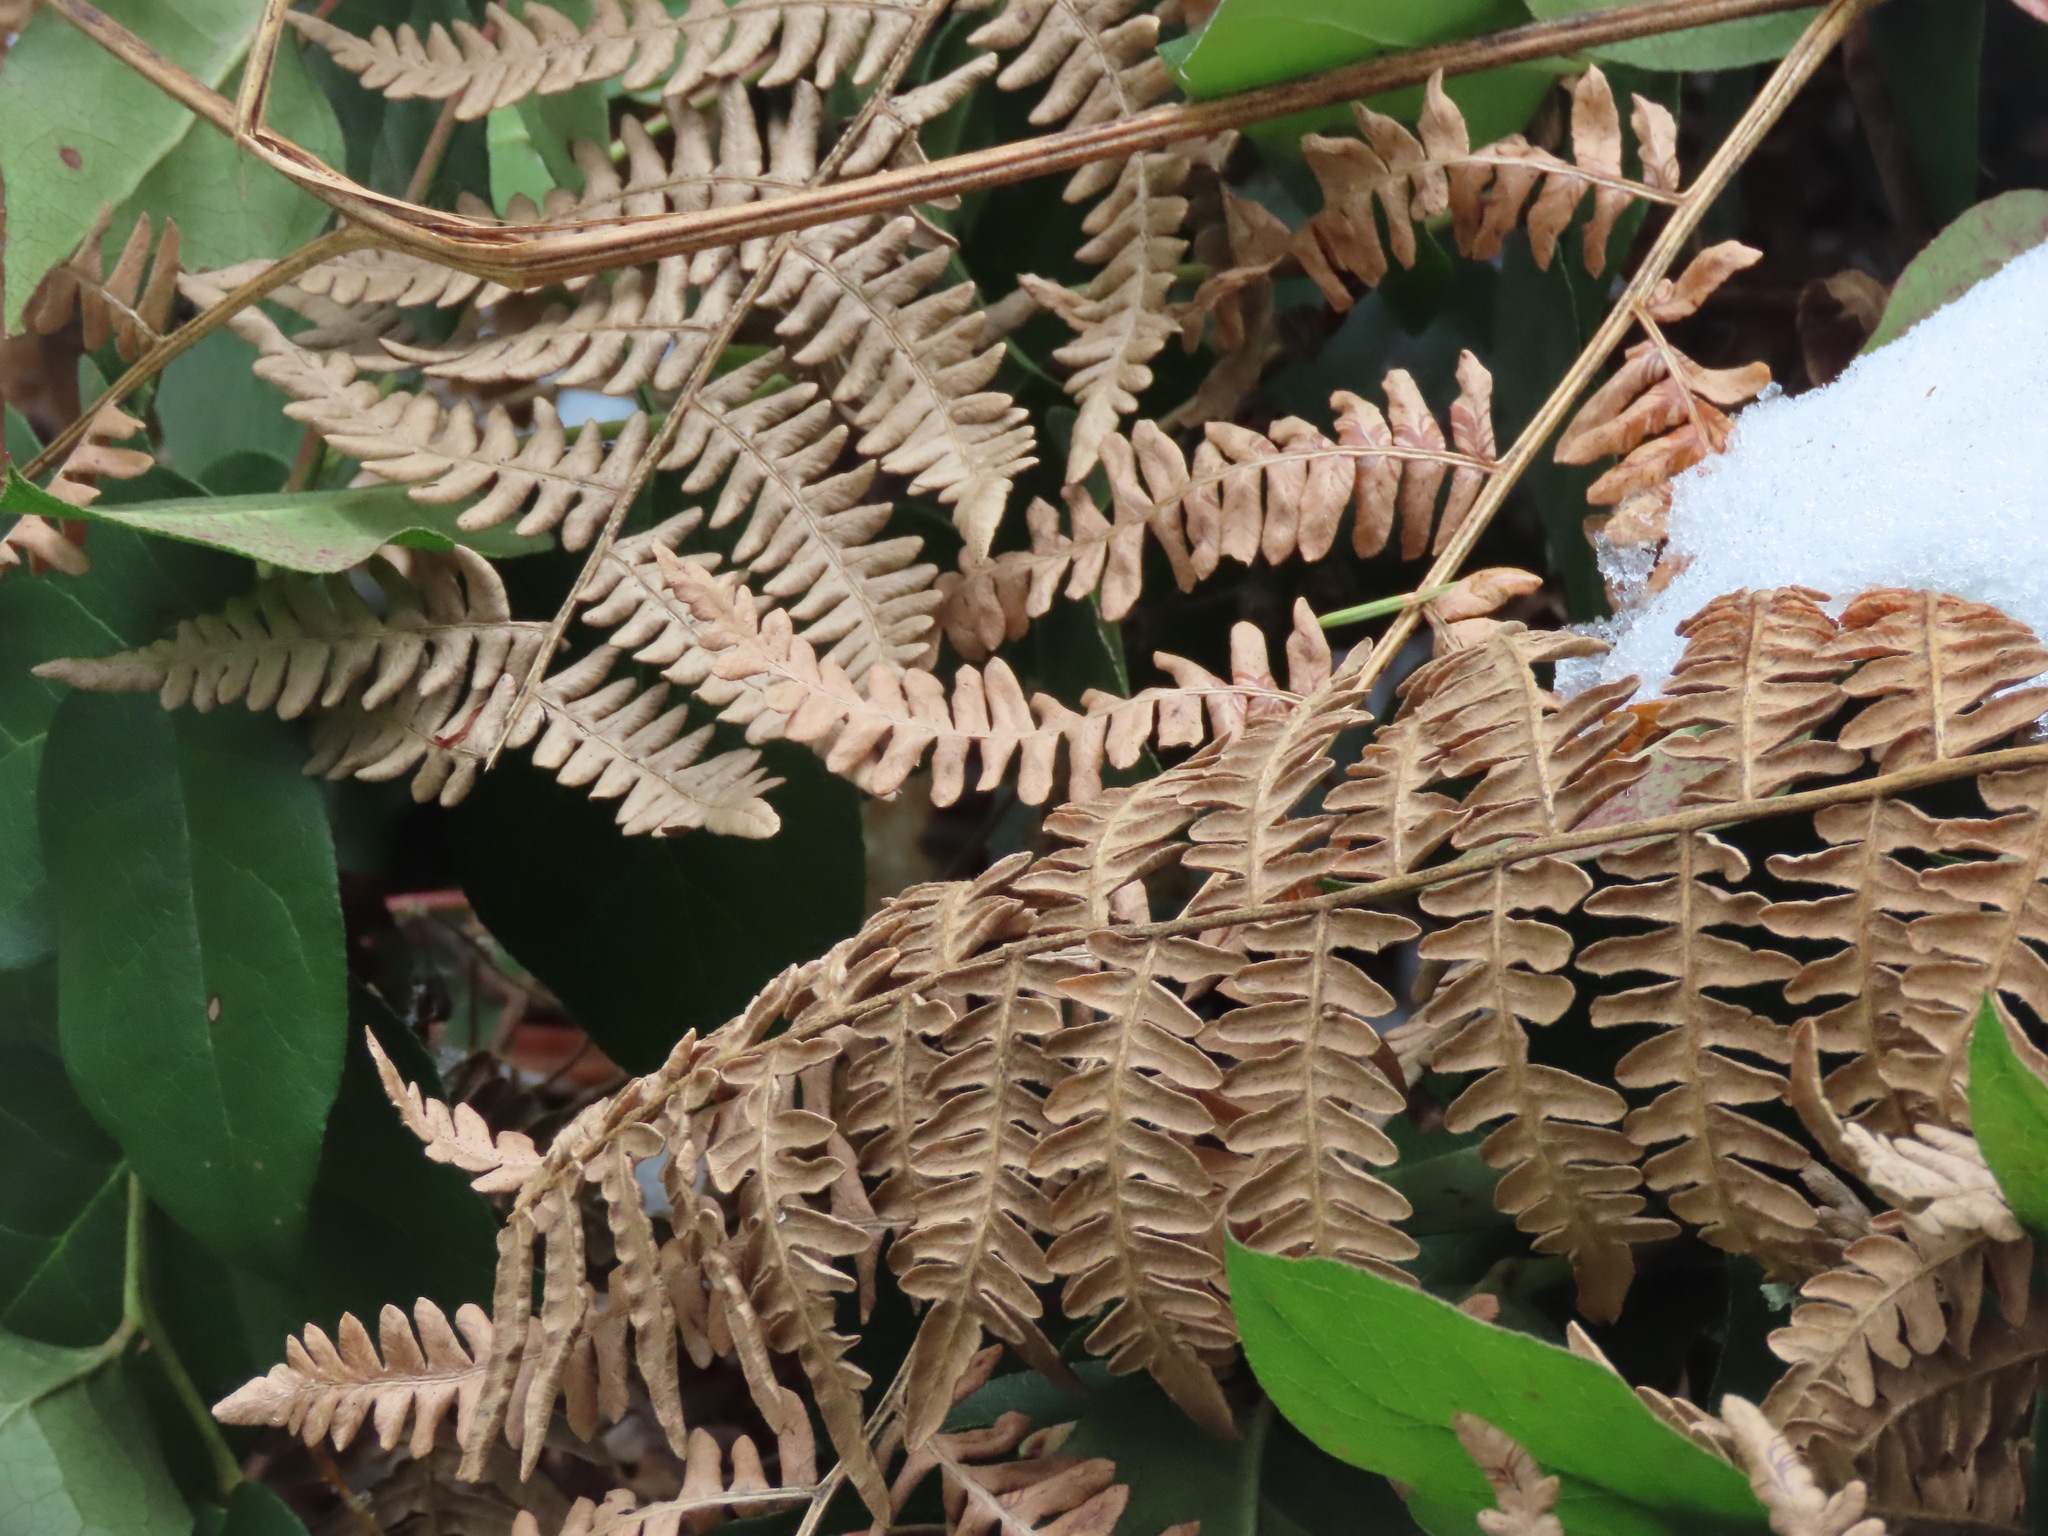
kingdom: Plantae
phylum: Tracheophyta
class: Polypodiopsida
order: Polypodiales
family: Dennstaedtiaceae
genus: Pteridium
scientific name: Pteridium aquilinum
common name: Bracken
